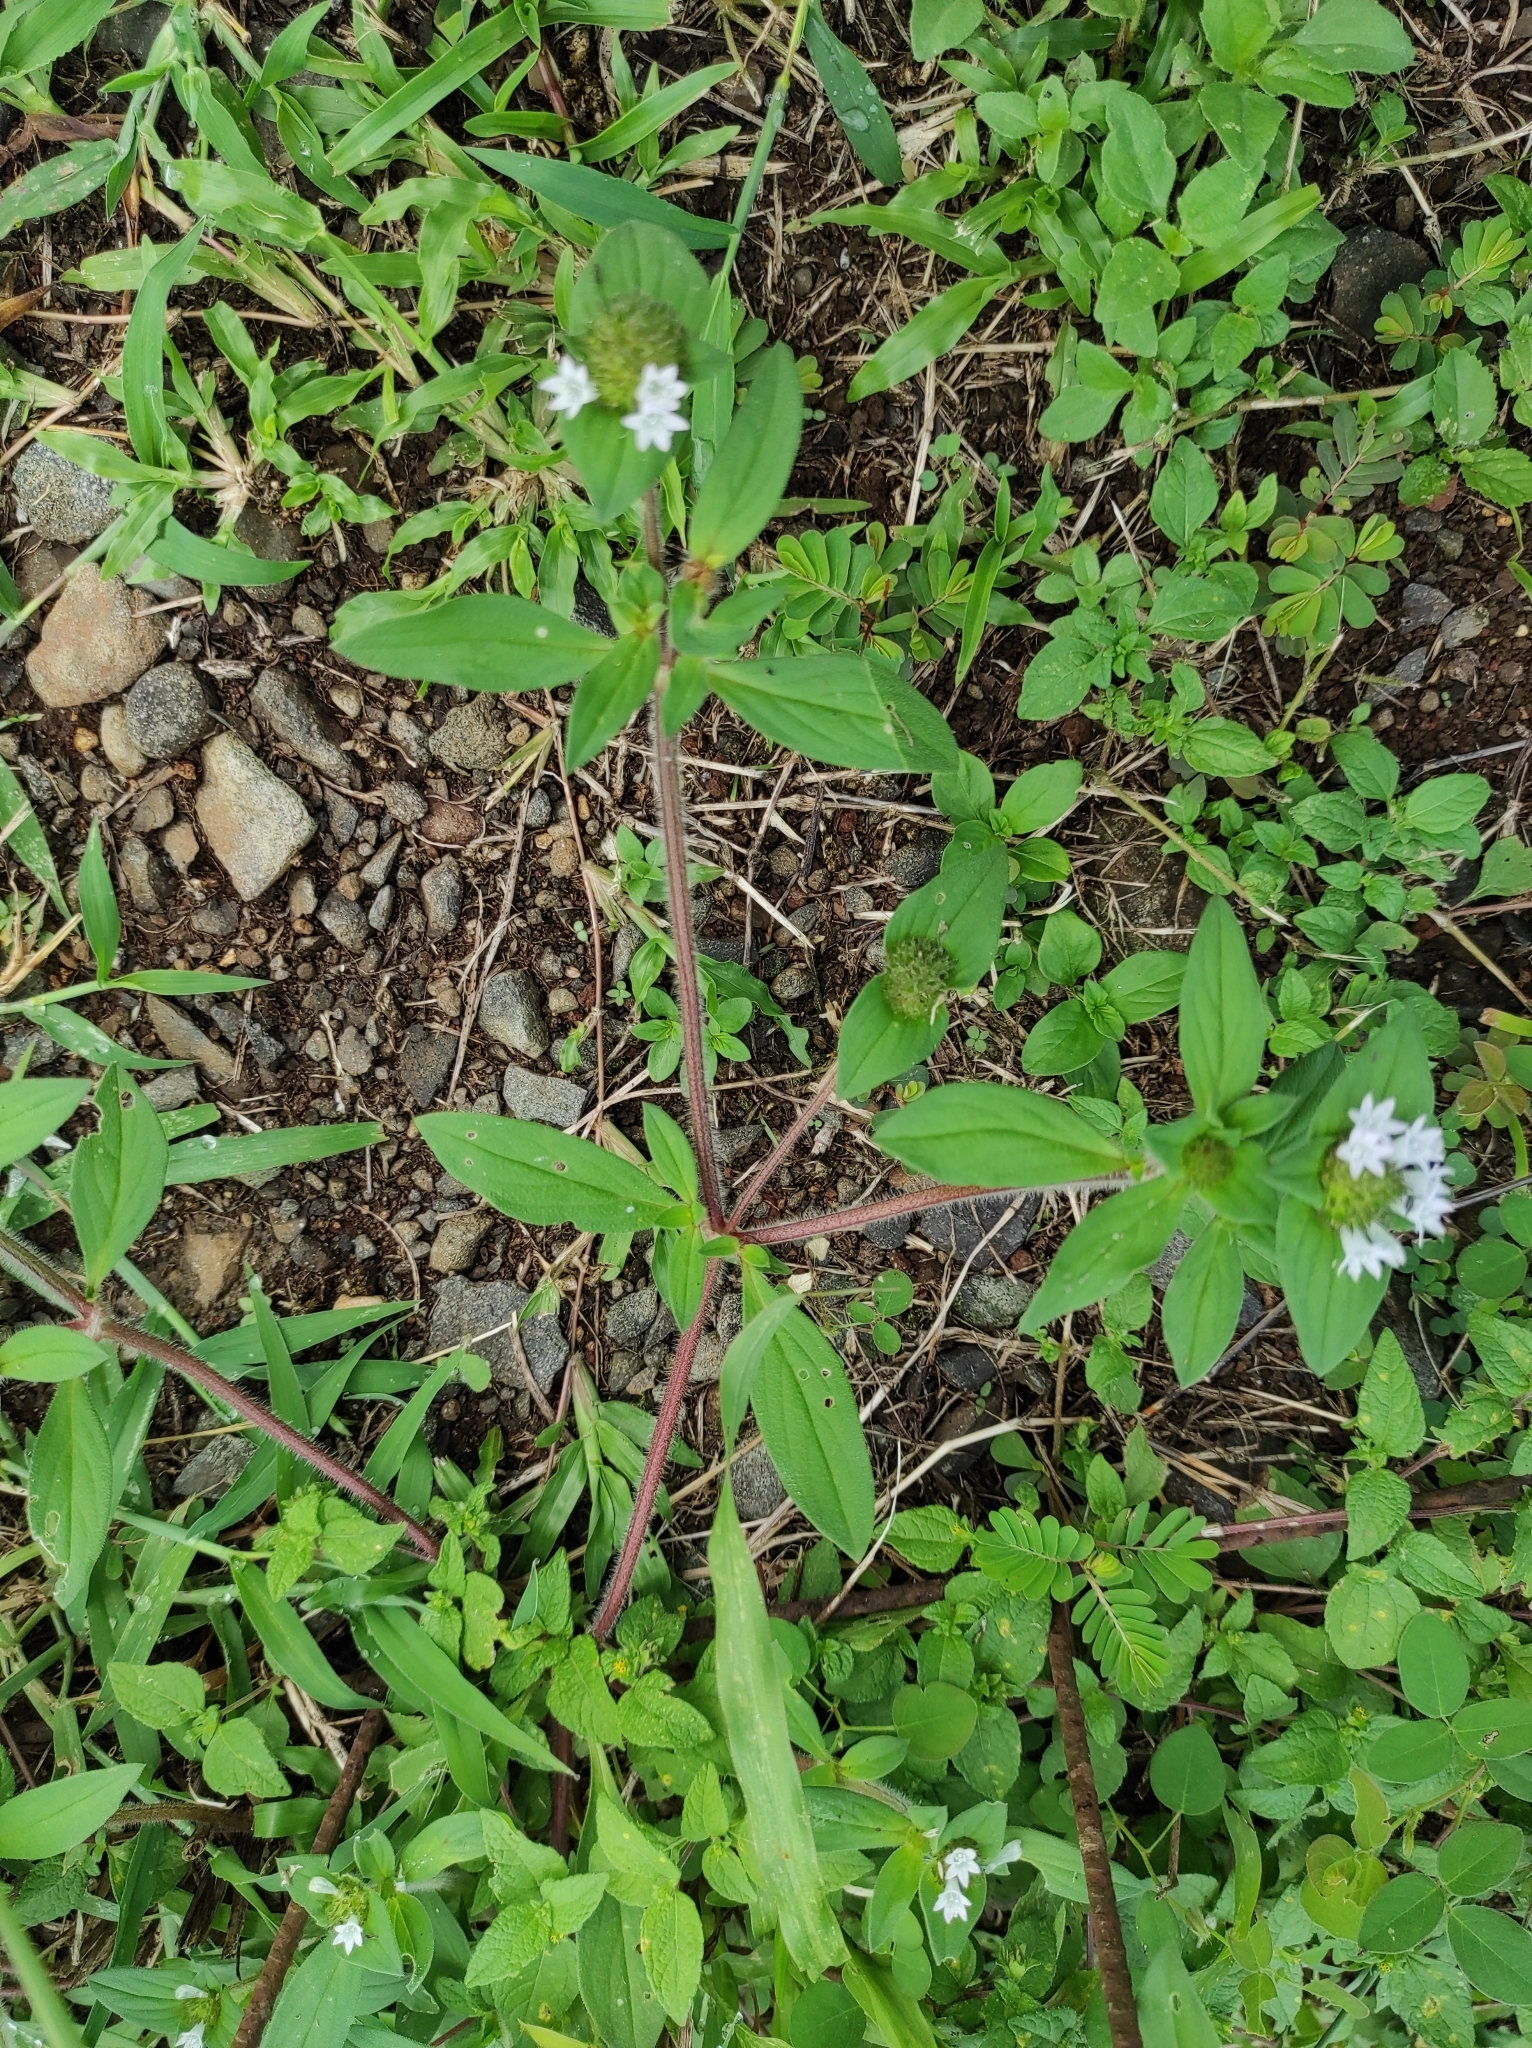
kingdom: Plantae
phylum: Tracheophyta
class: Magnoliopsida
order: Gentianales
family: Rubiaceae
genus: Richardia
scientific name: Richardia scabra
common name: Rough mexican clover
